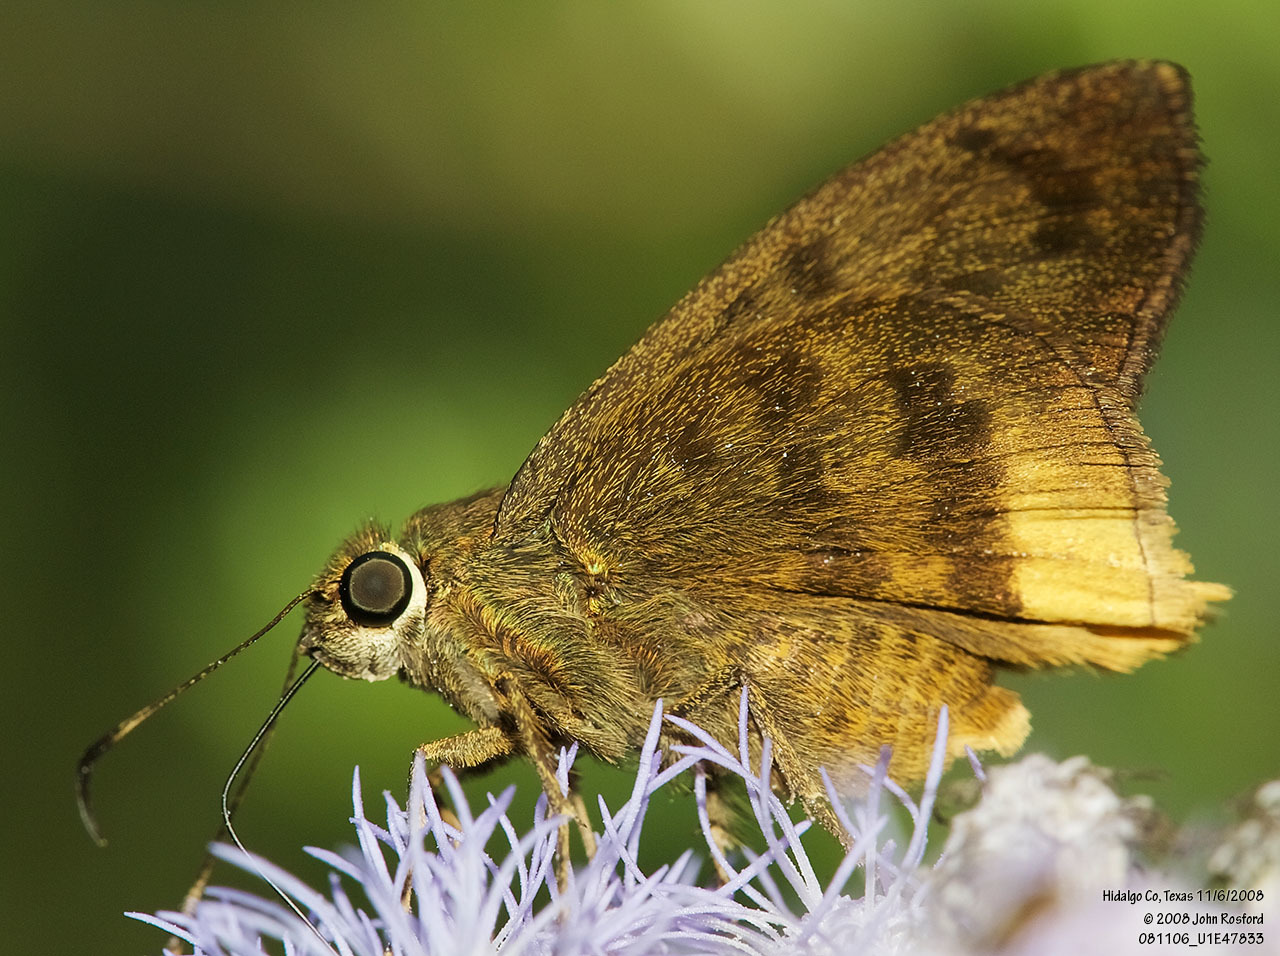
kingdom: Animalia
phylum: Arthropoda
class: Insecta
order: Lepidoptera
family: Hesperiidae
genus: Astraptes
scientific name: Astraptes anaphus
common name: Yellow-tipped flasher
